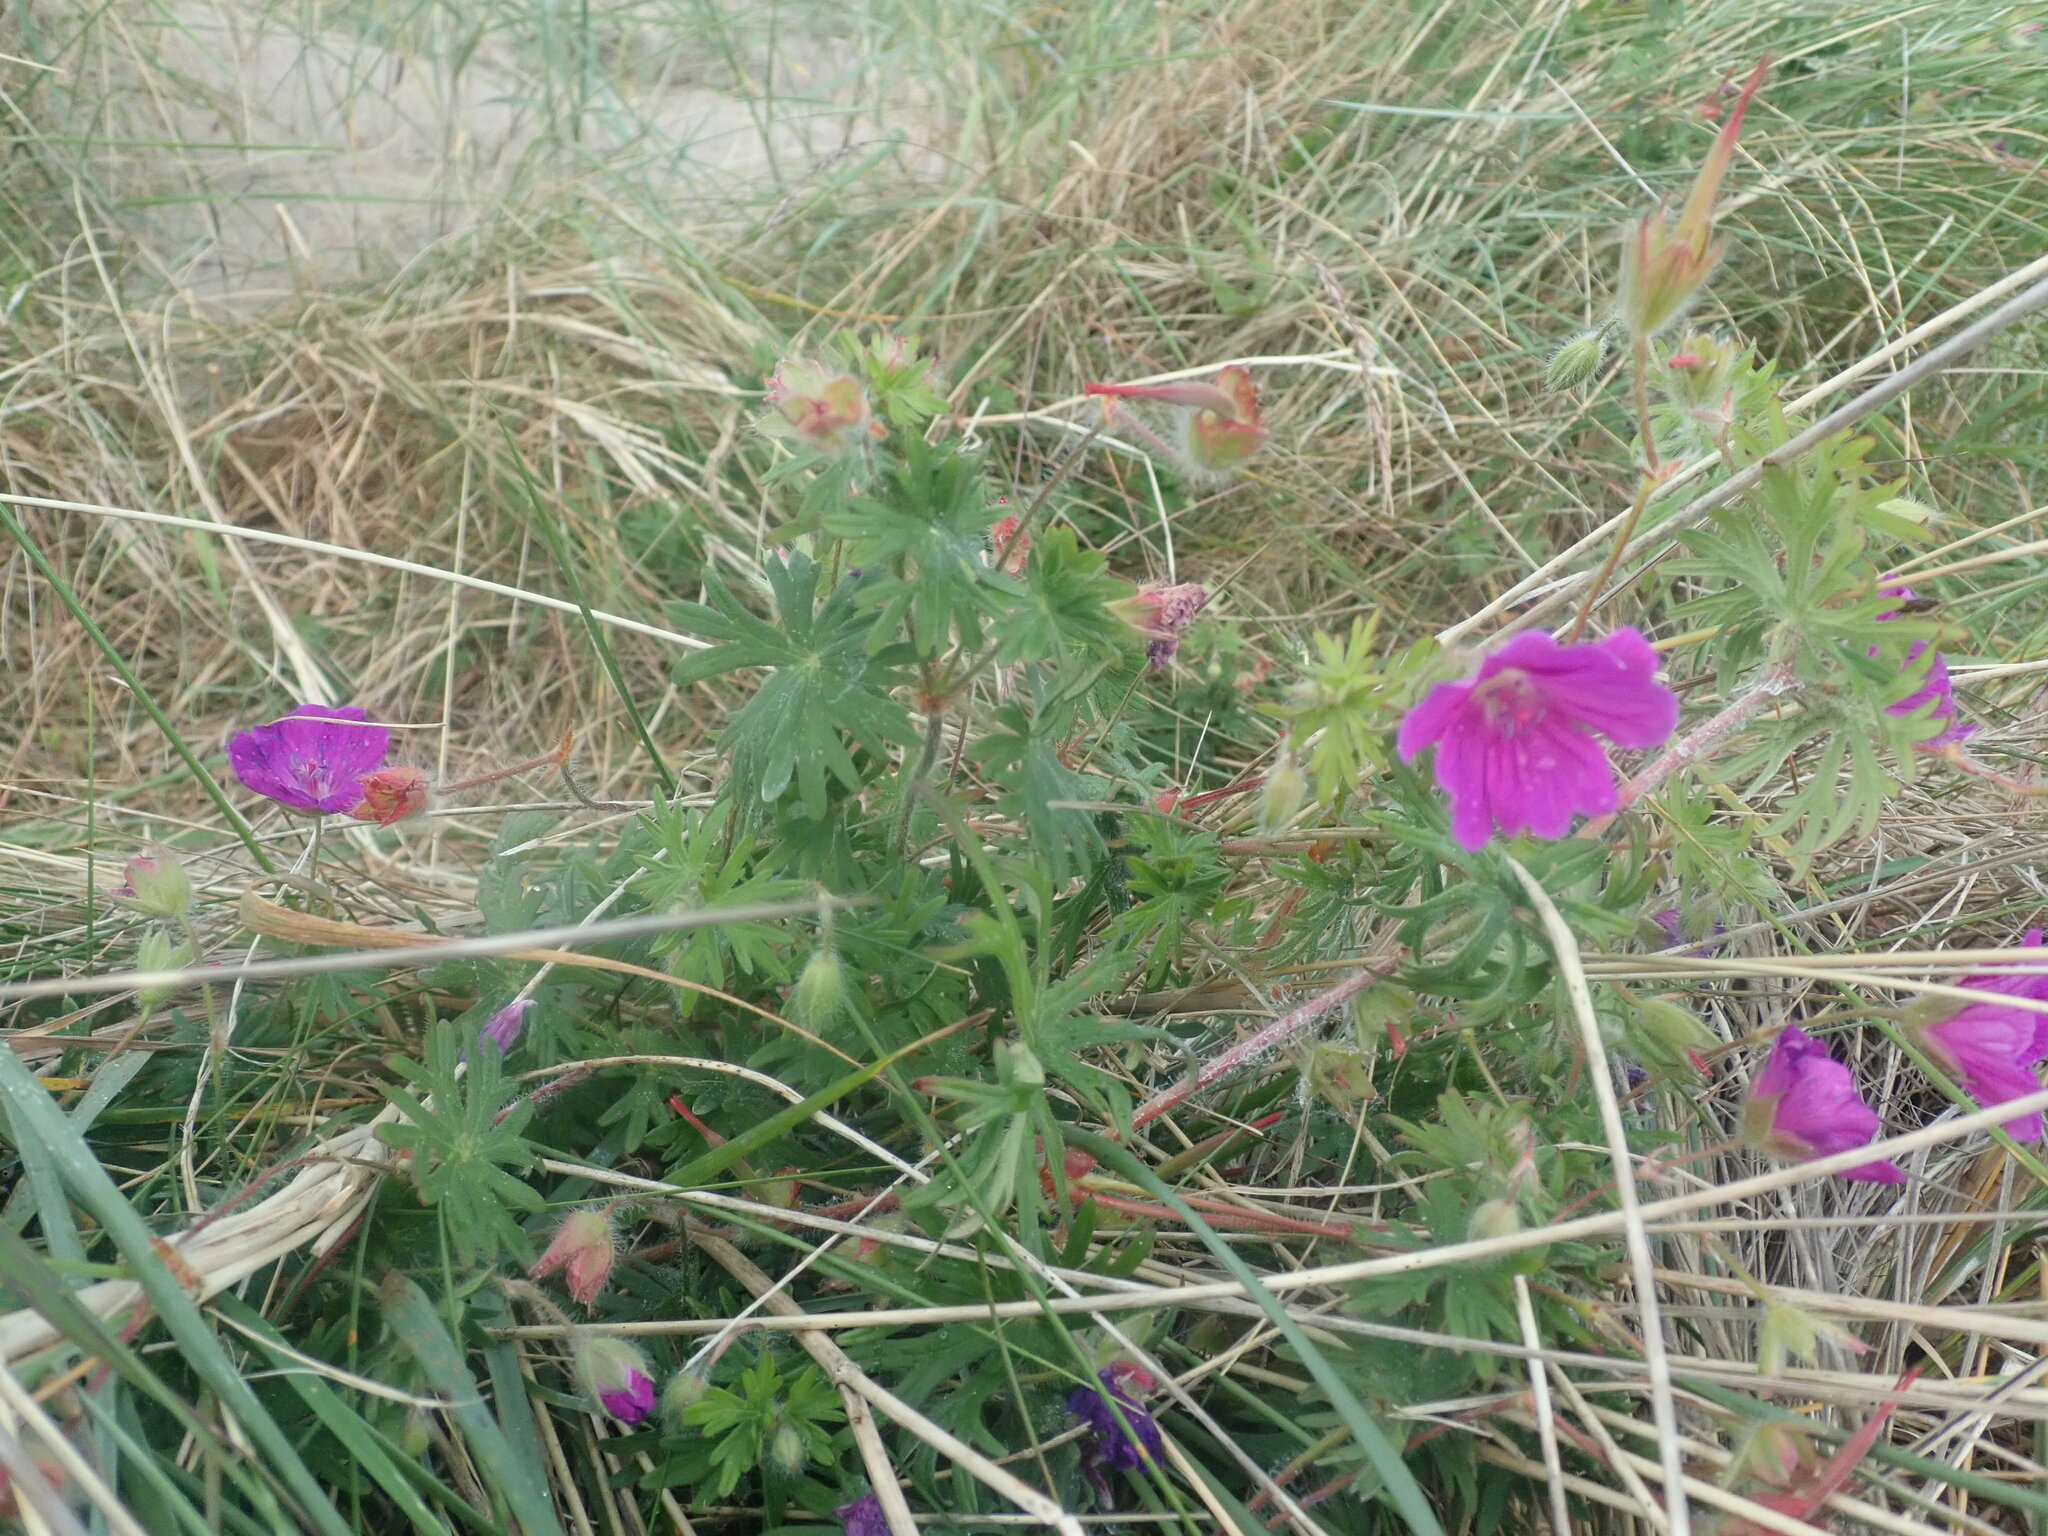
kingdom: Plantae
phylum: Tracheophyta
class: Magnoliopsida
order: Geraniales
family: Geraniaceae
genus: Geranium
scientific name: Geranium sanguineum
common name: Bloody crane's-bill
